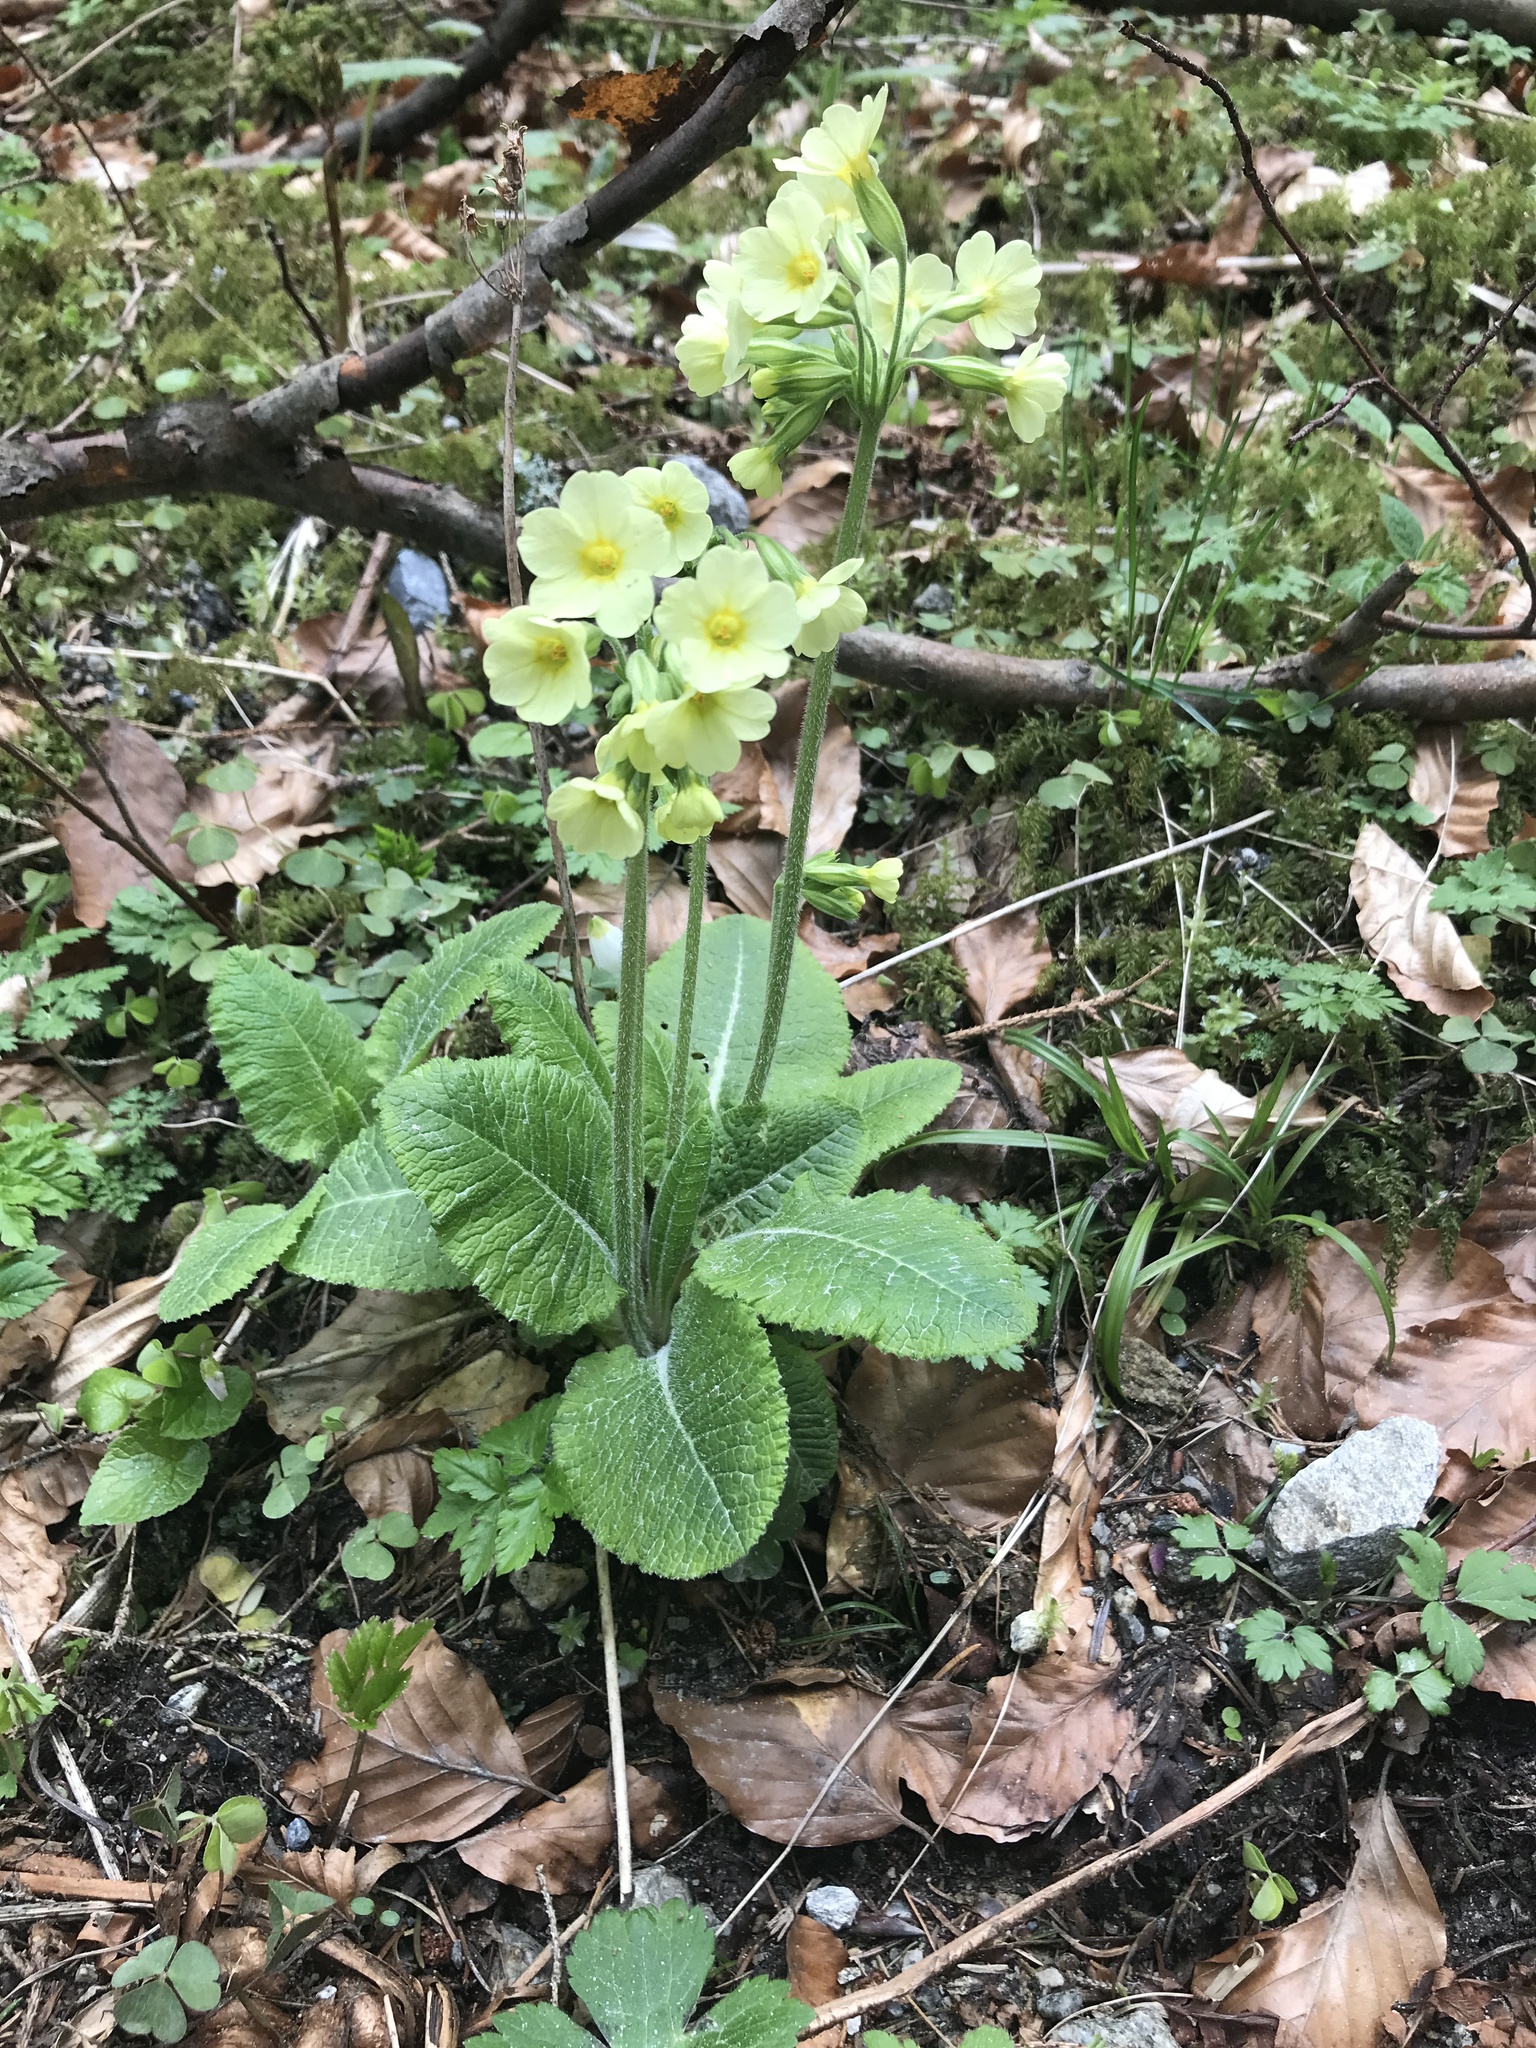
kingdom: Plantae
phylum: Tracheophyta
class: Magnoliopsida
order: Ericales
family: Primulaceae
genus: Primula
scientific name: Primula elatior
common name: Oxlip
